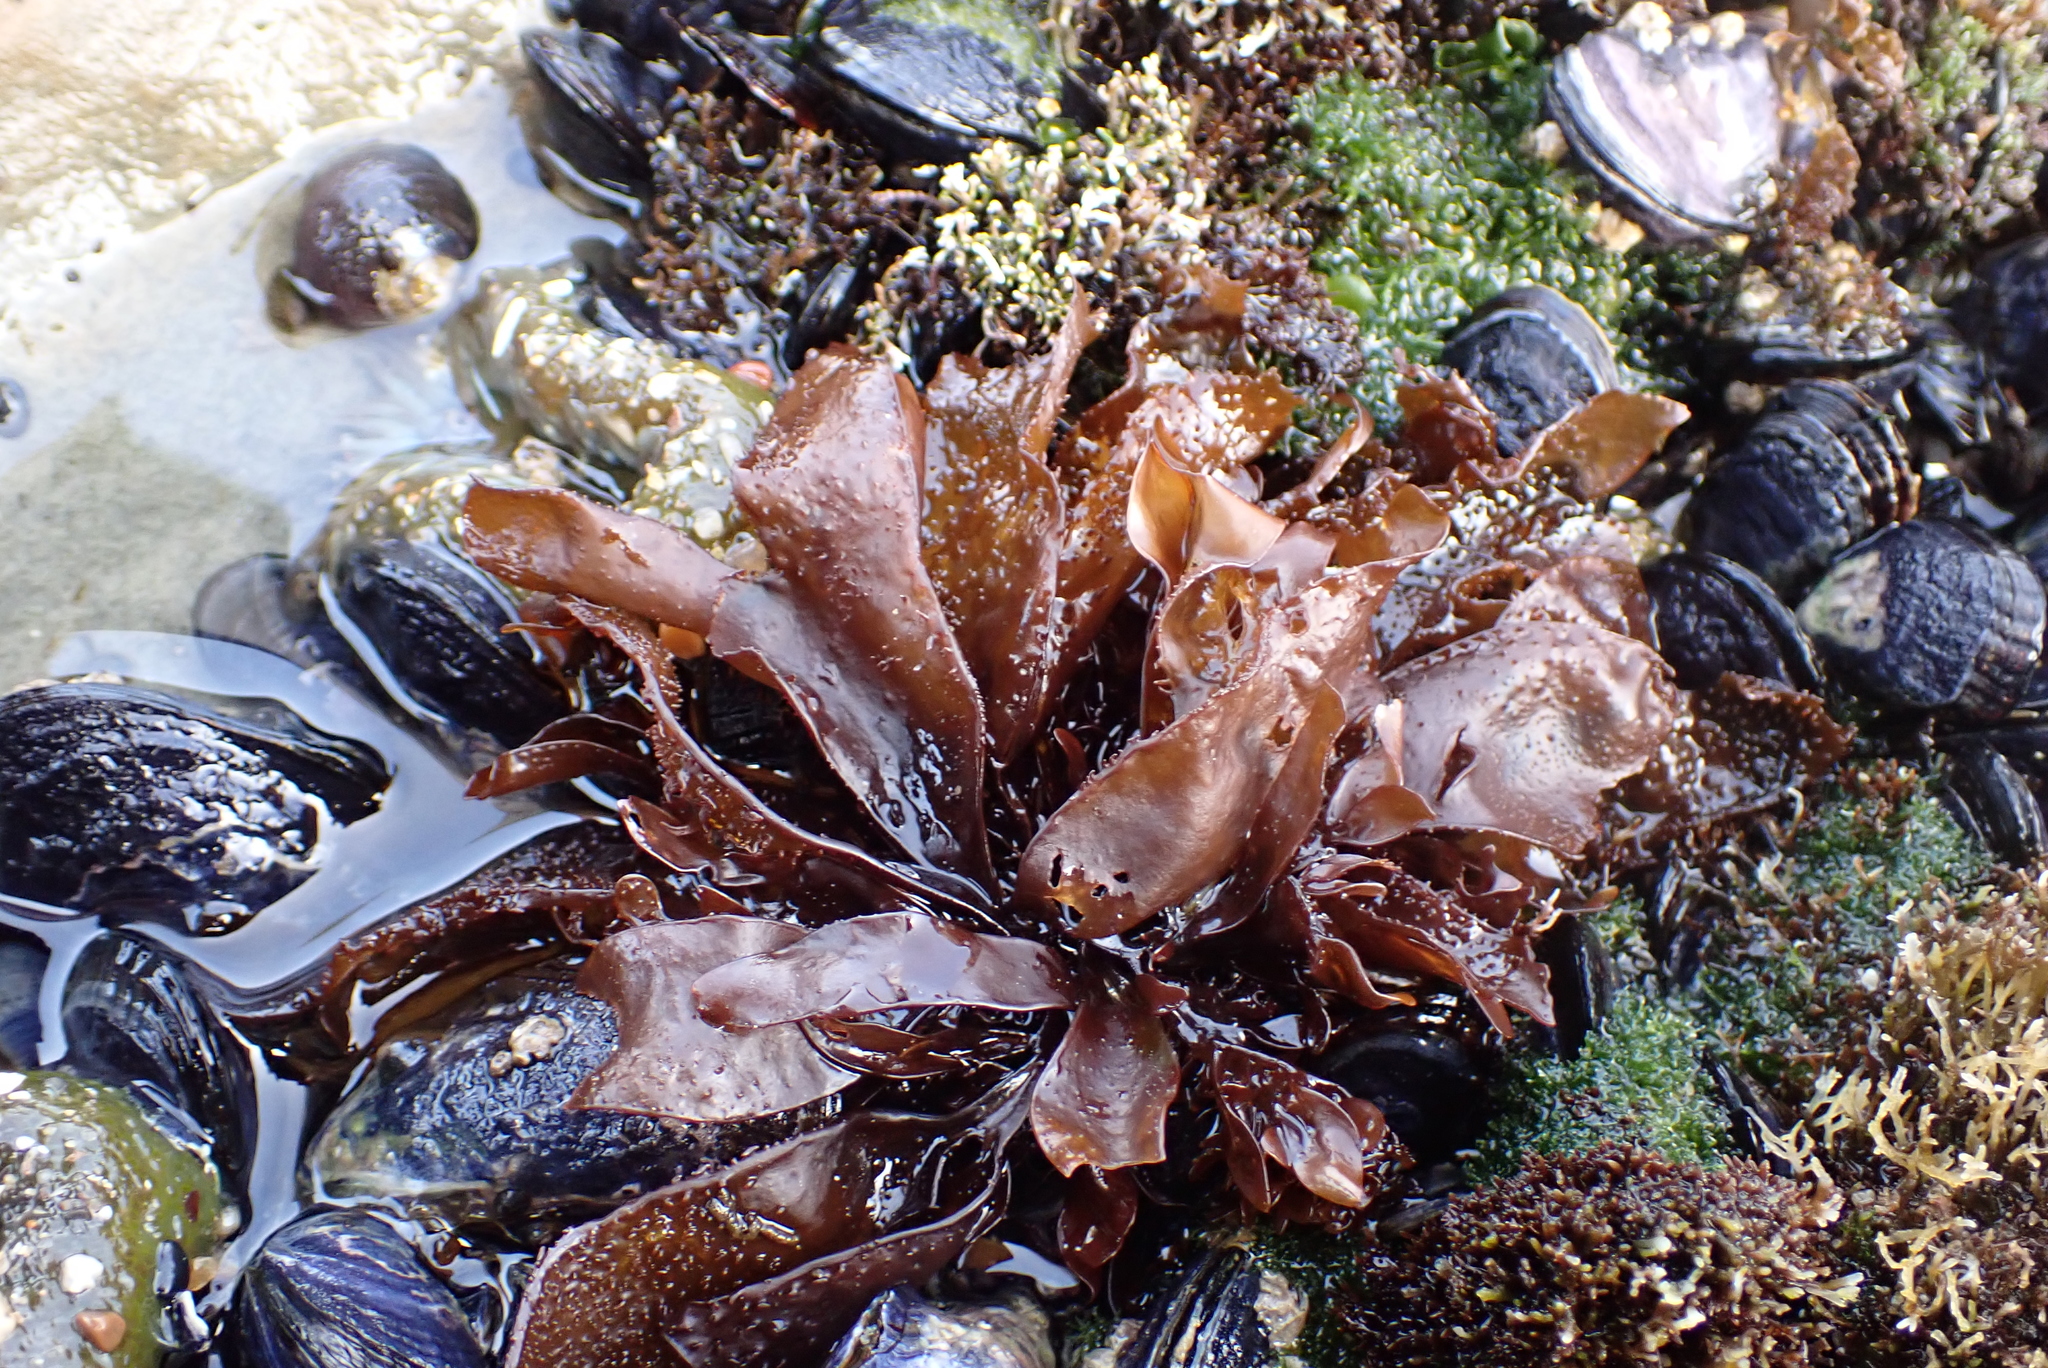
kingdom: Plantae
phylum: Rhodophyta
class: Florideophyceae
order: Gigartinales
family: Phyllophoraceae
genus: Mastocarpus
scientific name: Mastocarpus papillatus
